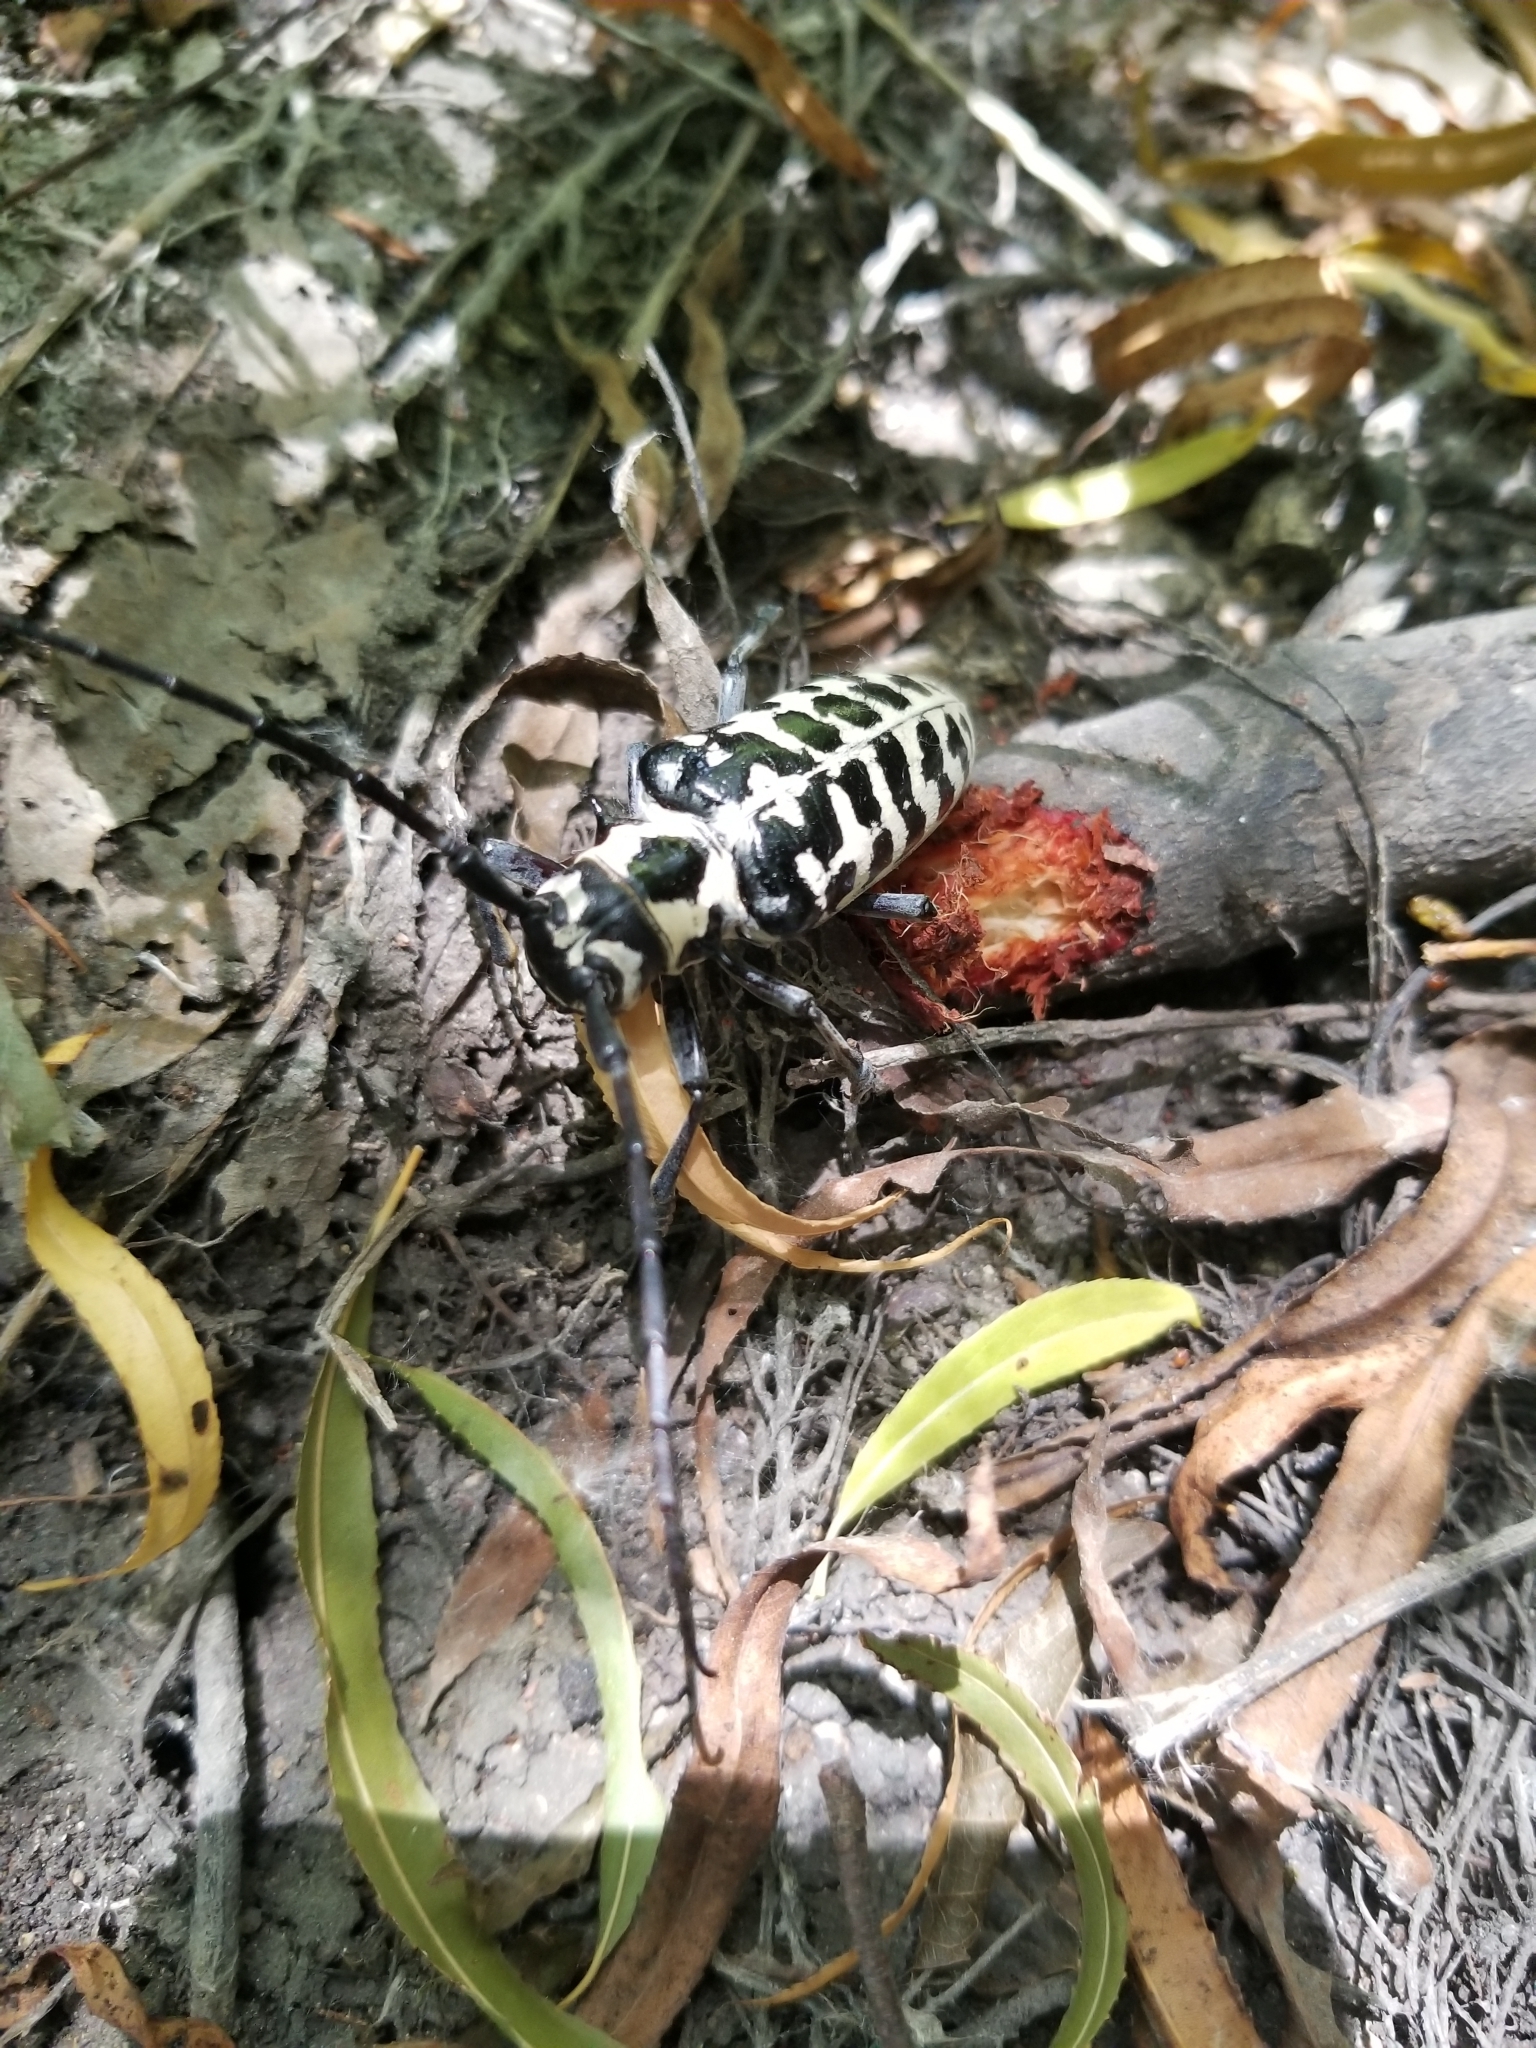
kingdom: Animalia
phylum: Arthropoda
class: Insecta
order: Coleoptera
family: Cerambycidae
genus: Plectrodera
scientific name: Plectrodera scalator
